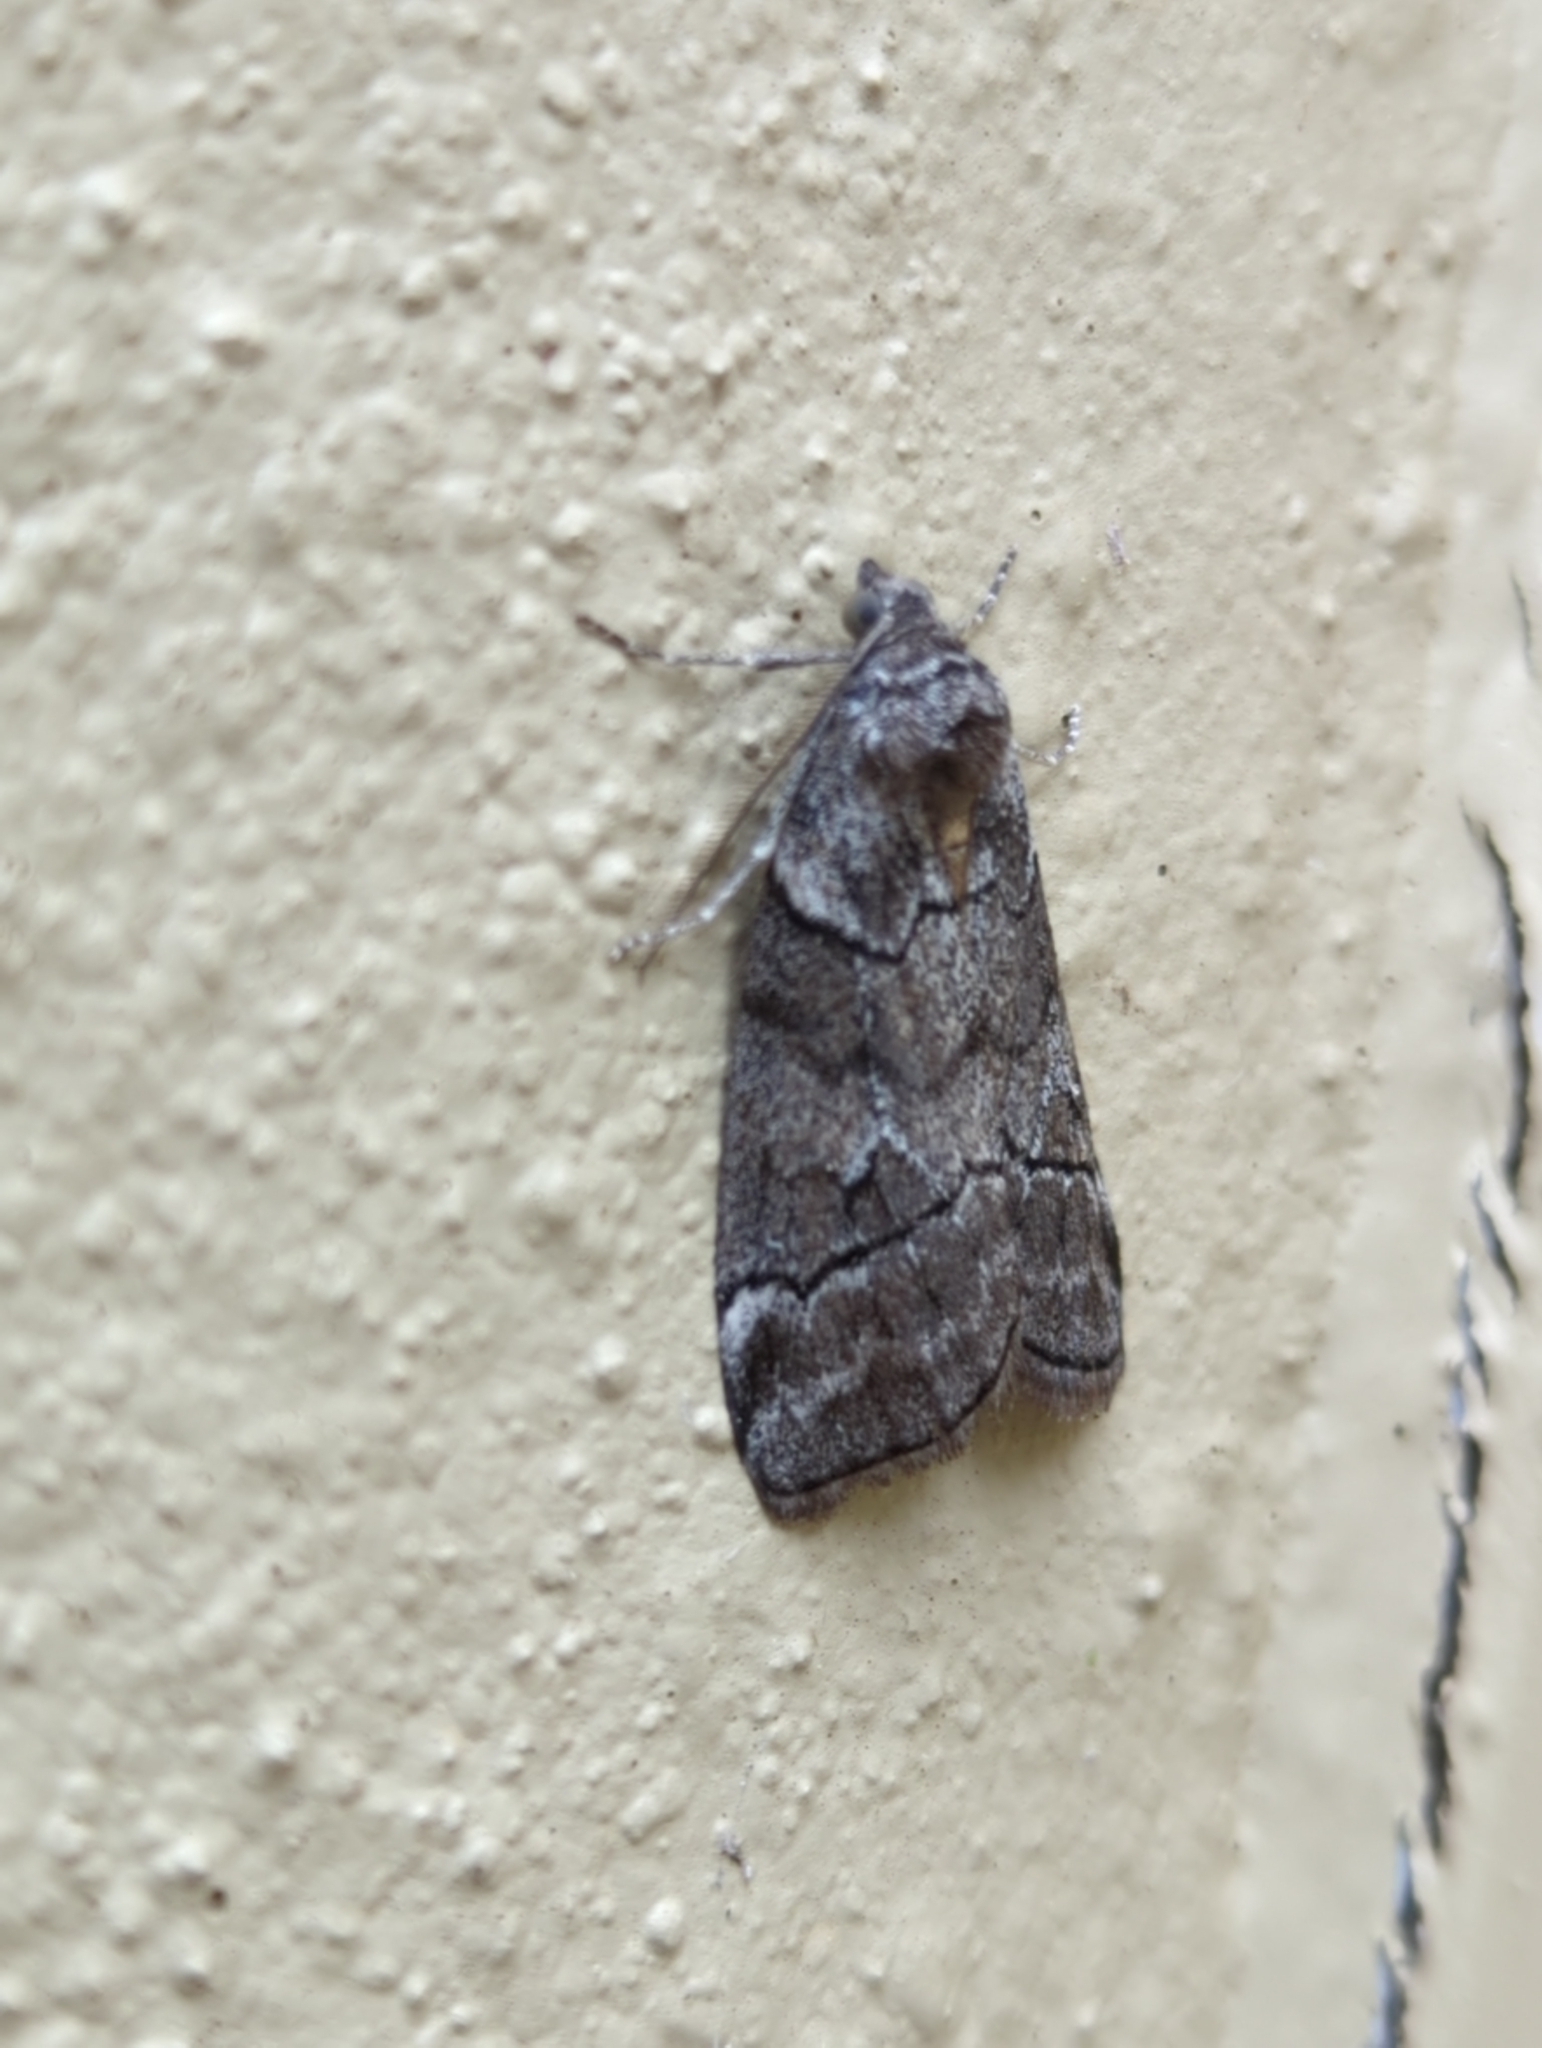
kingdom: Animalia
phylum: Arthropoda
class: Insecta
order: Lepidoptera
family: Geometridae
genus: Corula
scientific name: Corula geometroides
